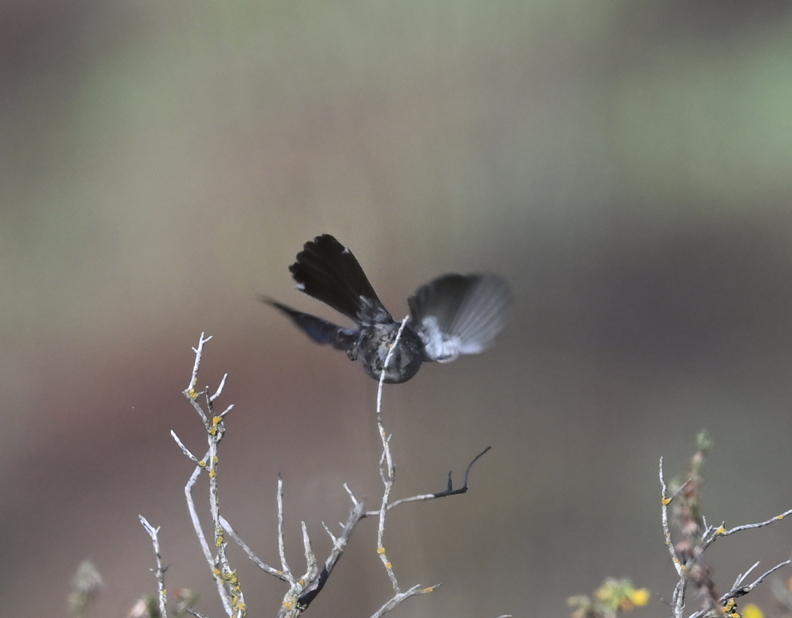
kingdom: Animalia
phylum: Chordata
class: Aves
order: Passeriformes
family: Polioptilidae
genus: Polioptila
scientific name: Polioptila californica
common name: California gnatcatcher
